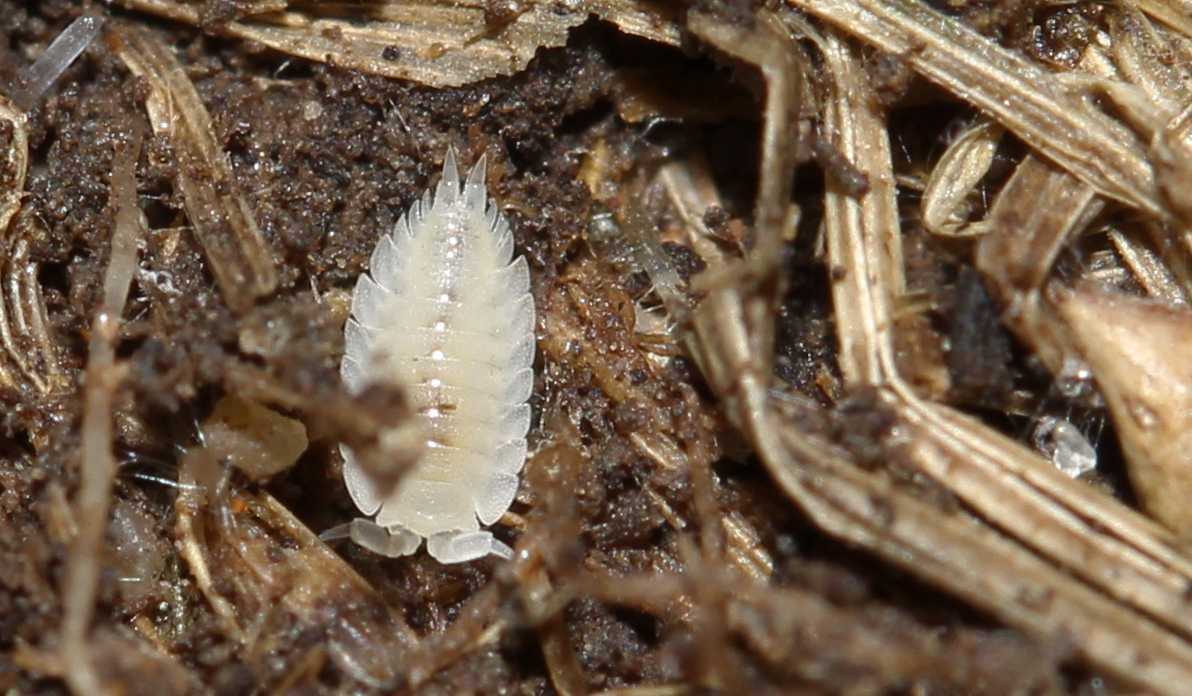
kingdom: Animalia
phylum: Arthropoda
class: Malacostraca
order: Isopoda
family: Platyarthridae
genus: Platyarthrus
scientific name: Platyarthrus hoffmannseggii
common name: Ant woodlouse
